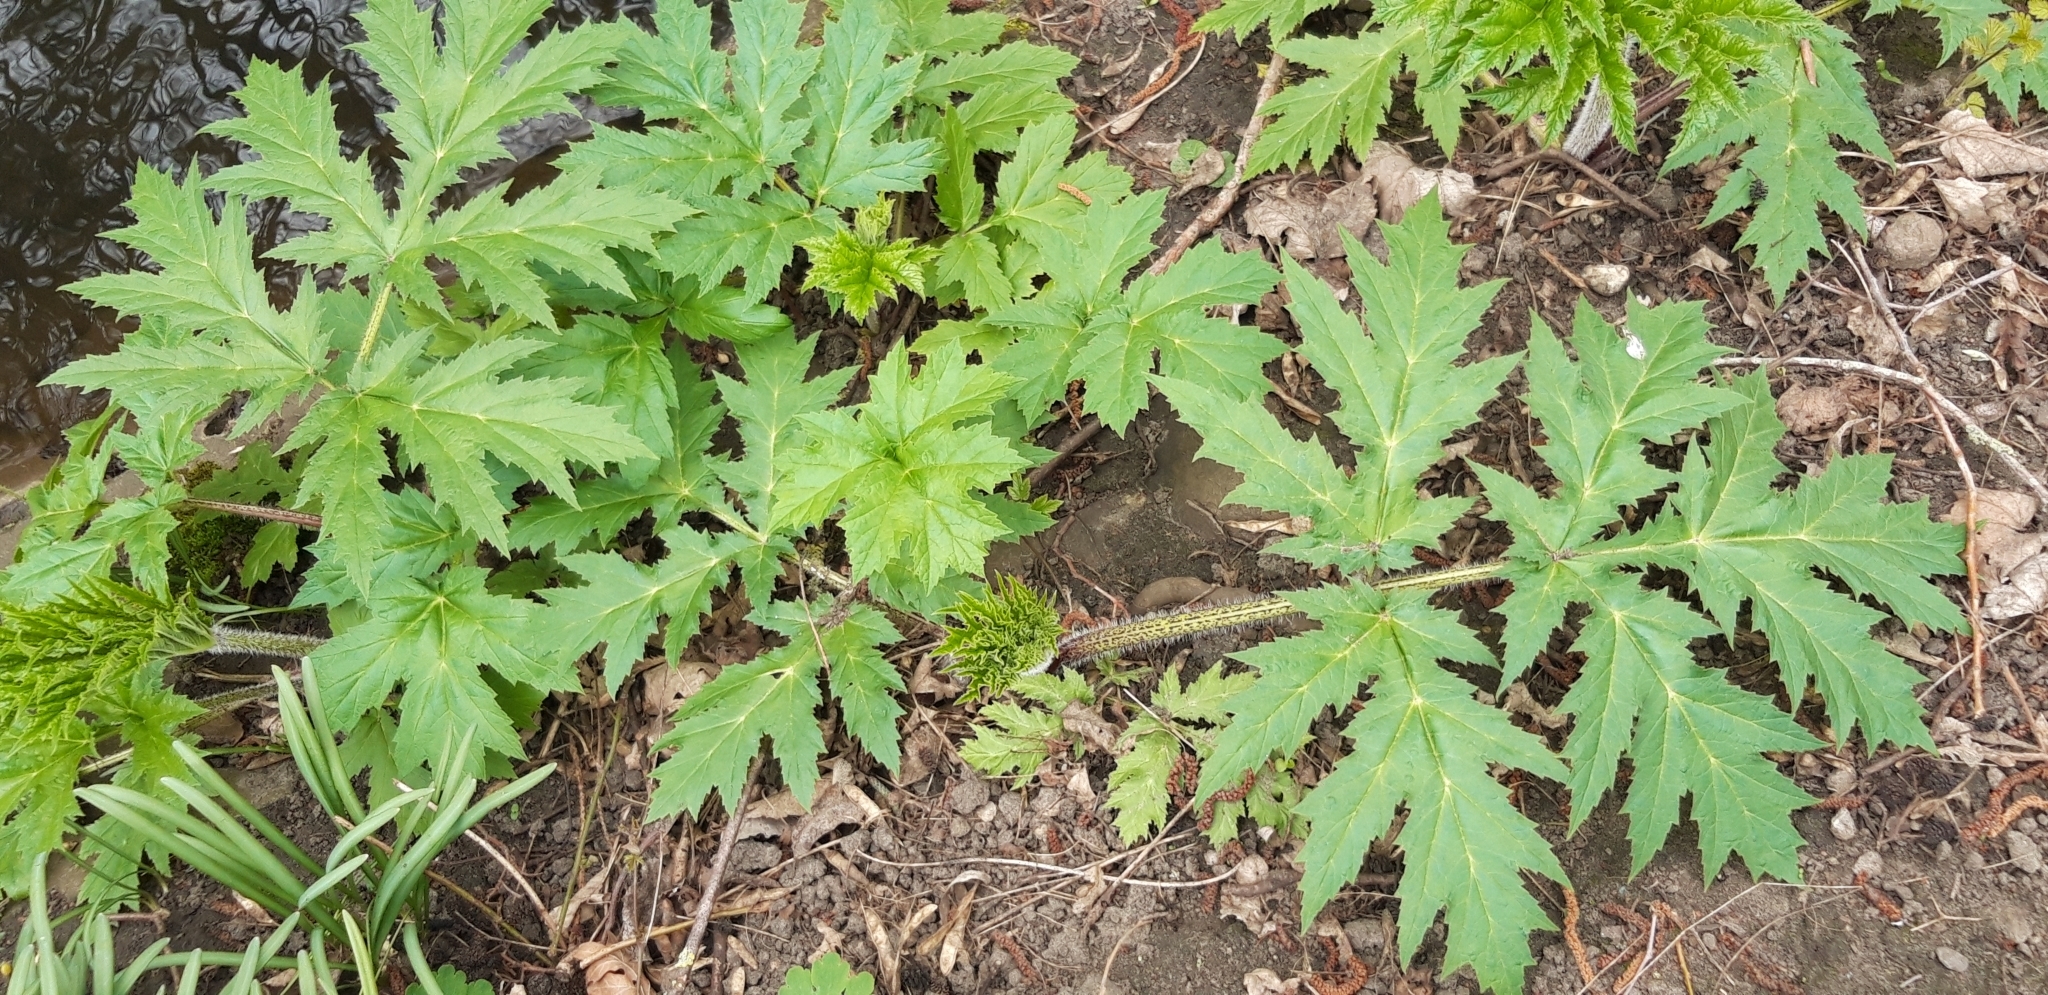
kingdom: Plantae
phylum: Tracheophyta
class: Magnoliopsida
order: Apiales
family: Apiaceae
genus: Heracleum
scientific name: Heracleum mantegazzianum
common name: Giant hogweed
